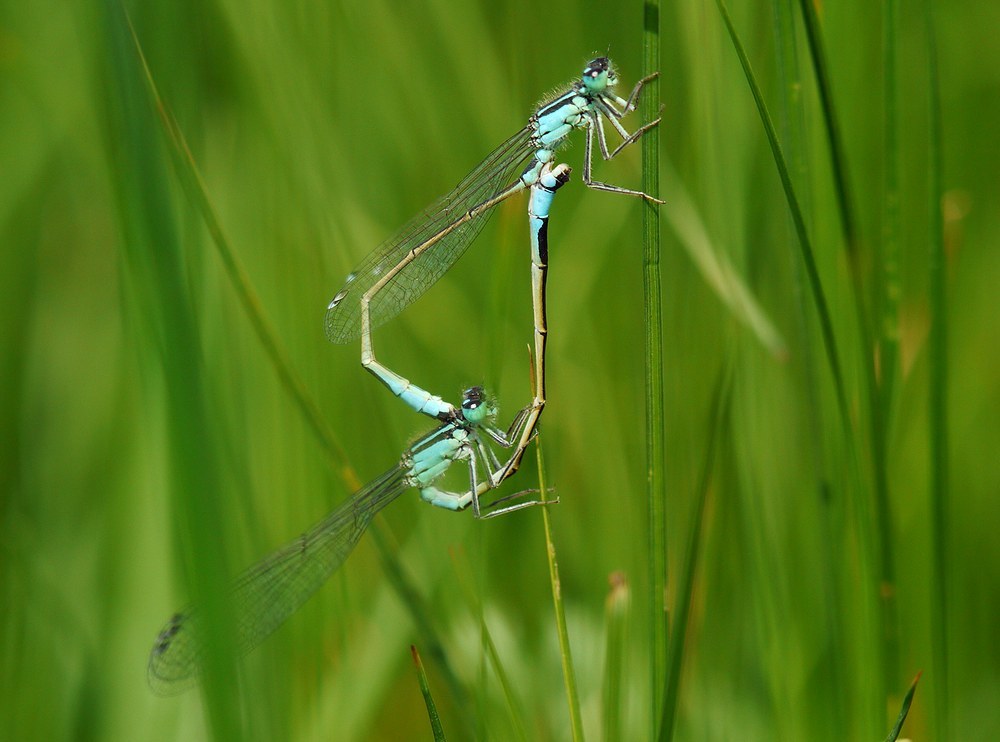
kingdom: Animalia
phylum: Arthropoda
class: Insecta
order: Odonata
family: Coenagrionidae
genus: Ischnura
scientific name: Ischnura elegans
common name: Blue-tailed damselfly
